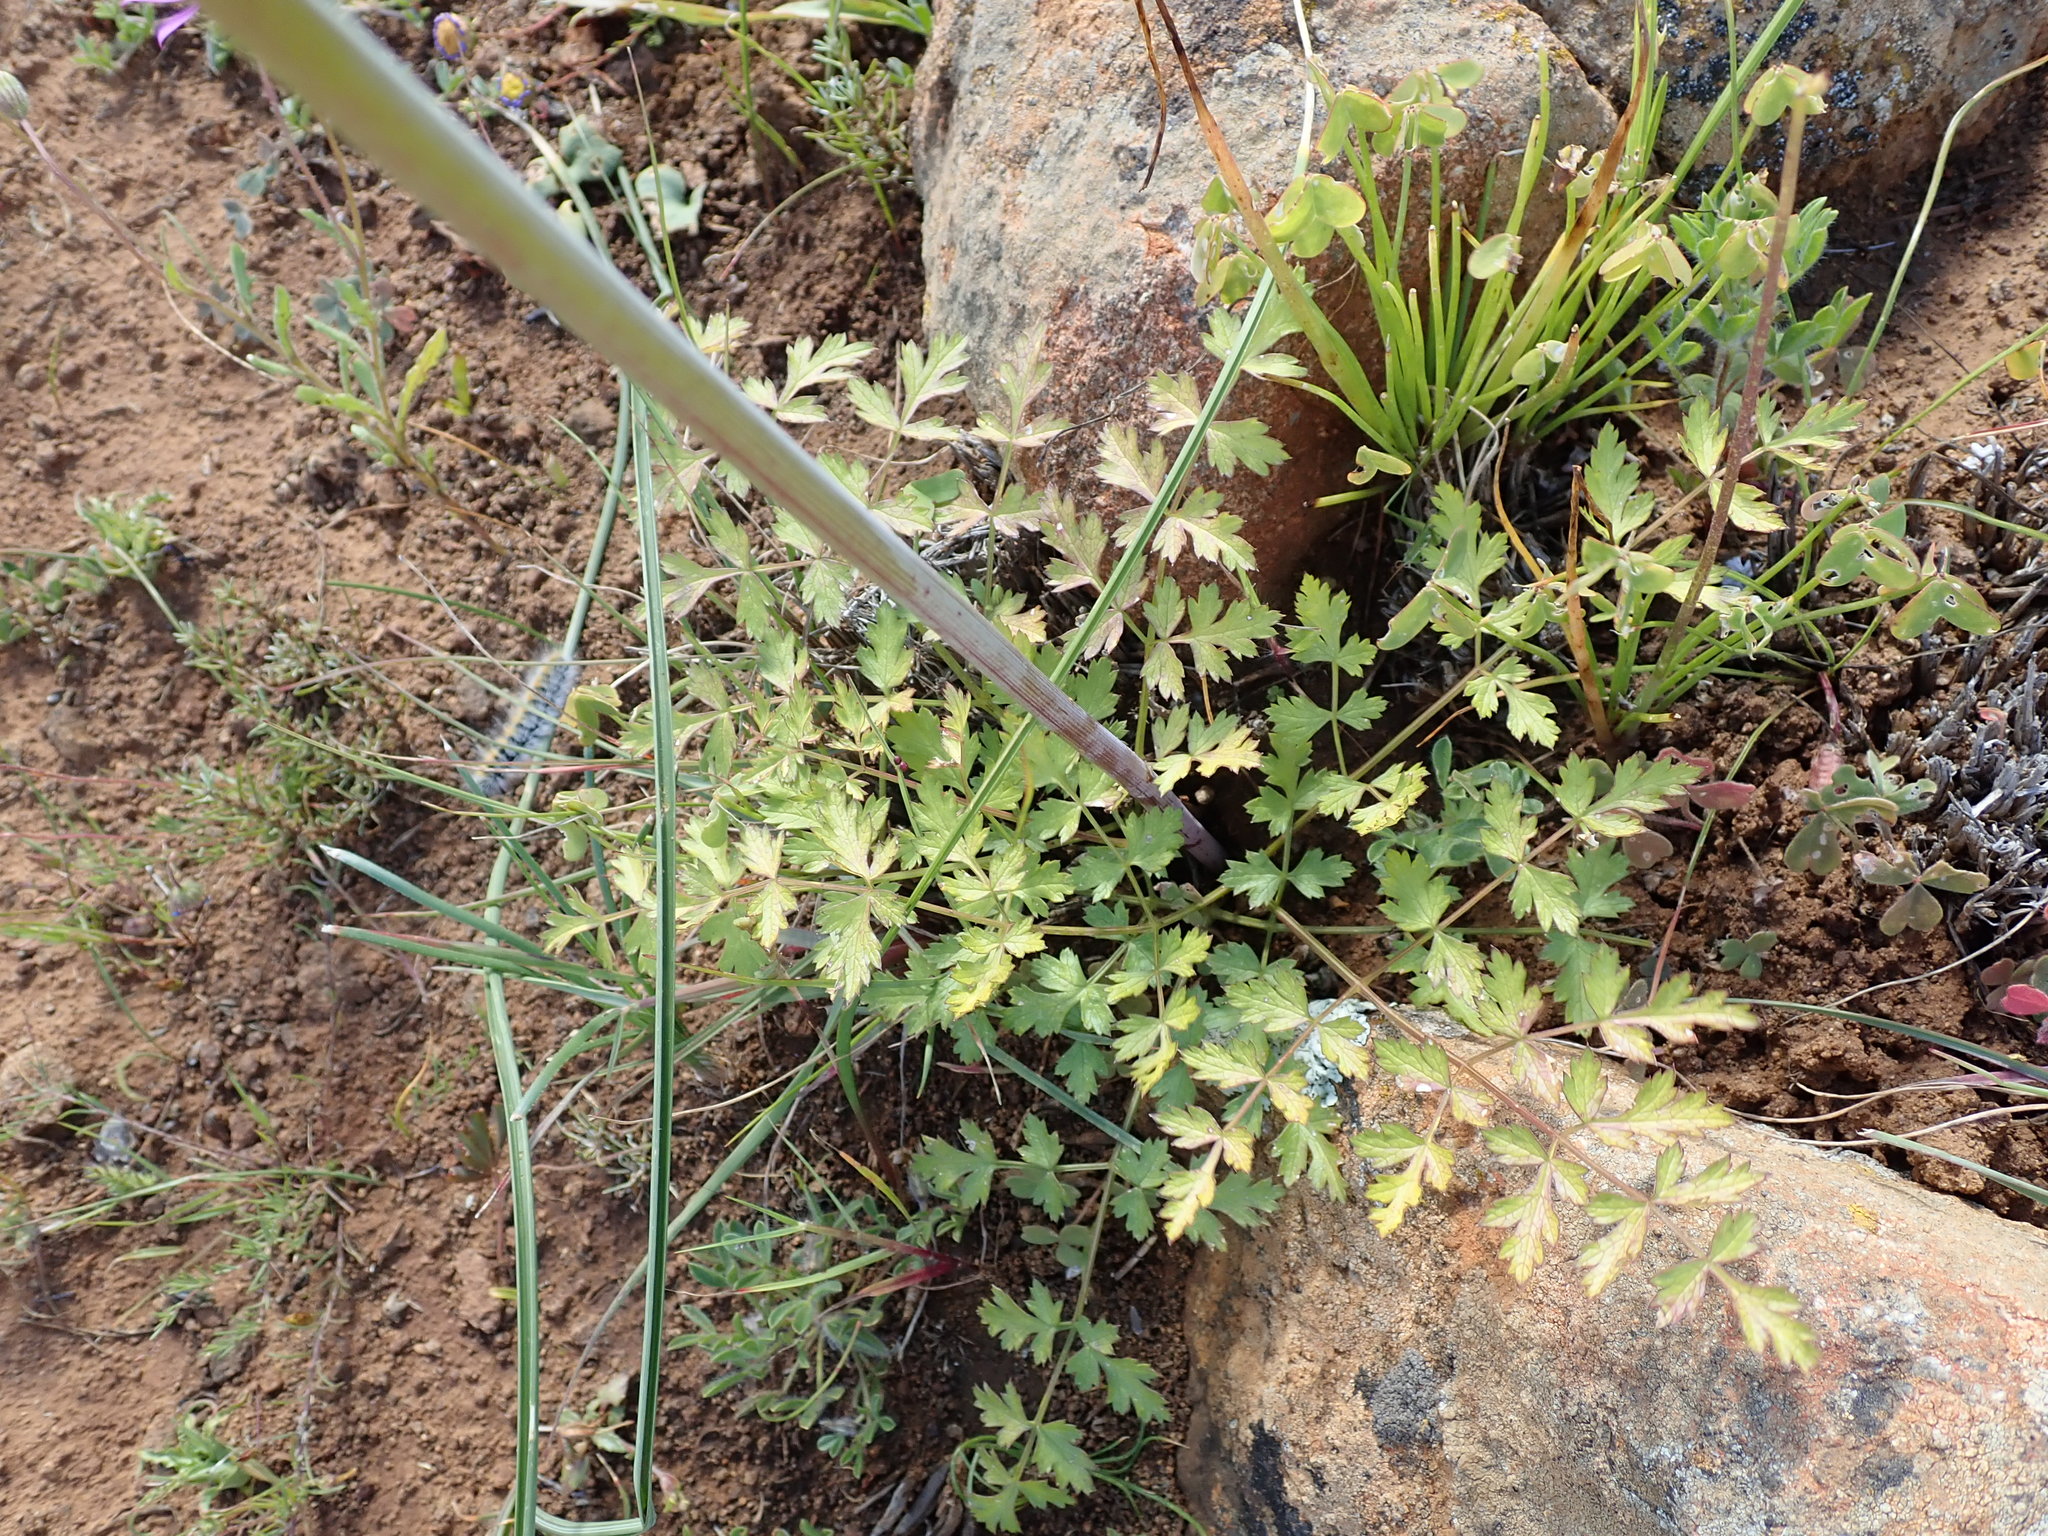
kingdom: Plantae
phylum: Tracheophyta
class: Magnoliopsida
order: Apiales
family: Apiaceae
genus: Annesorhiza
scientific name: Annesorhiza altiscapa
